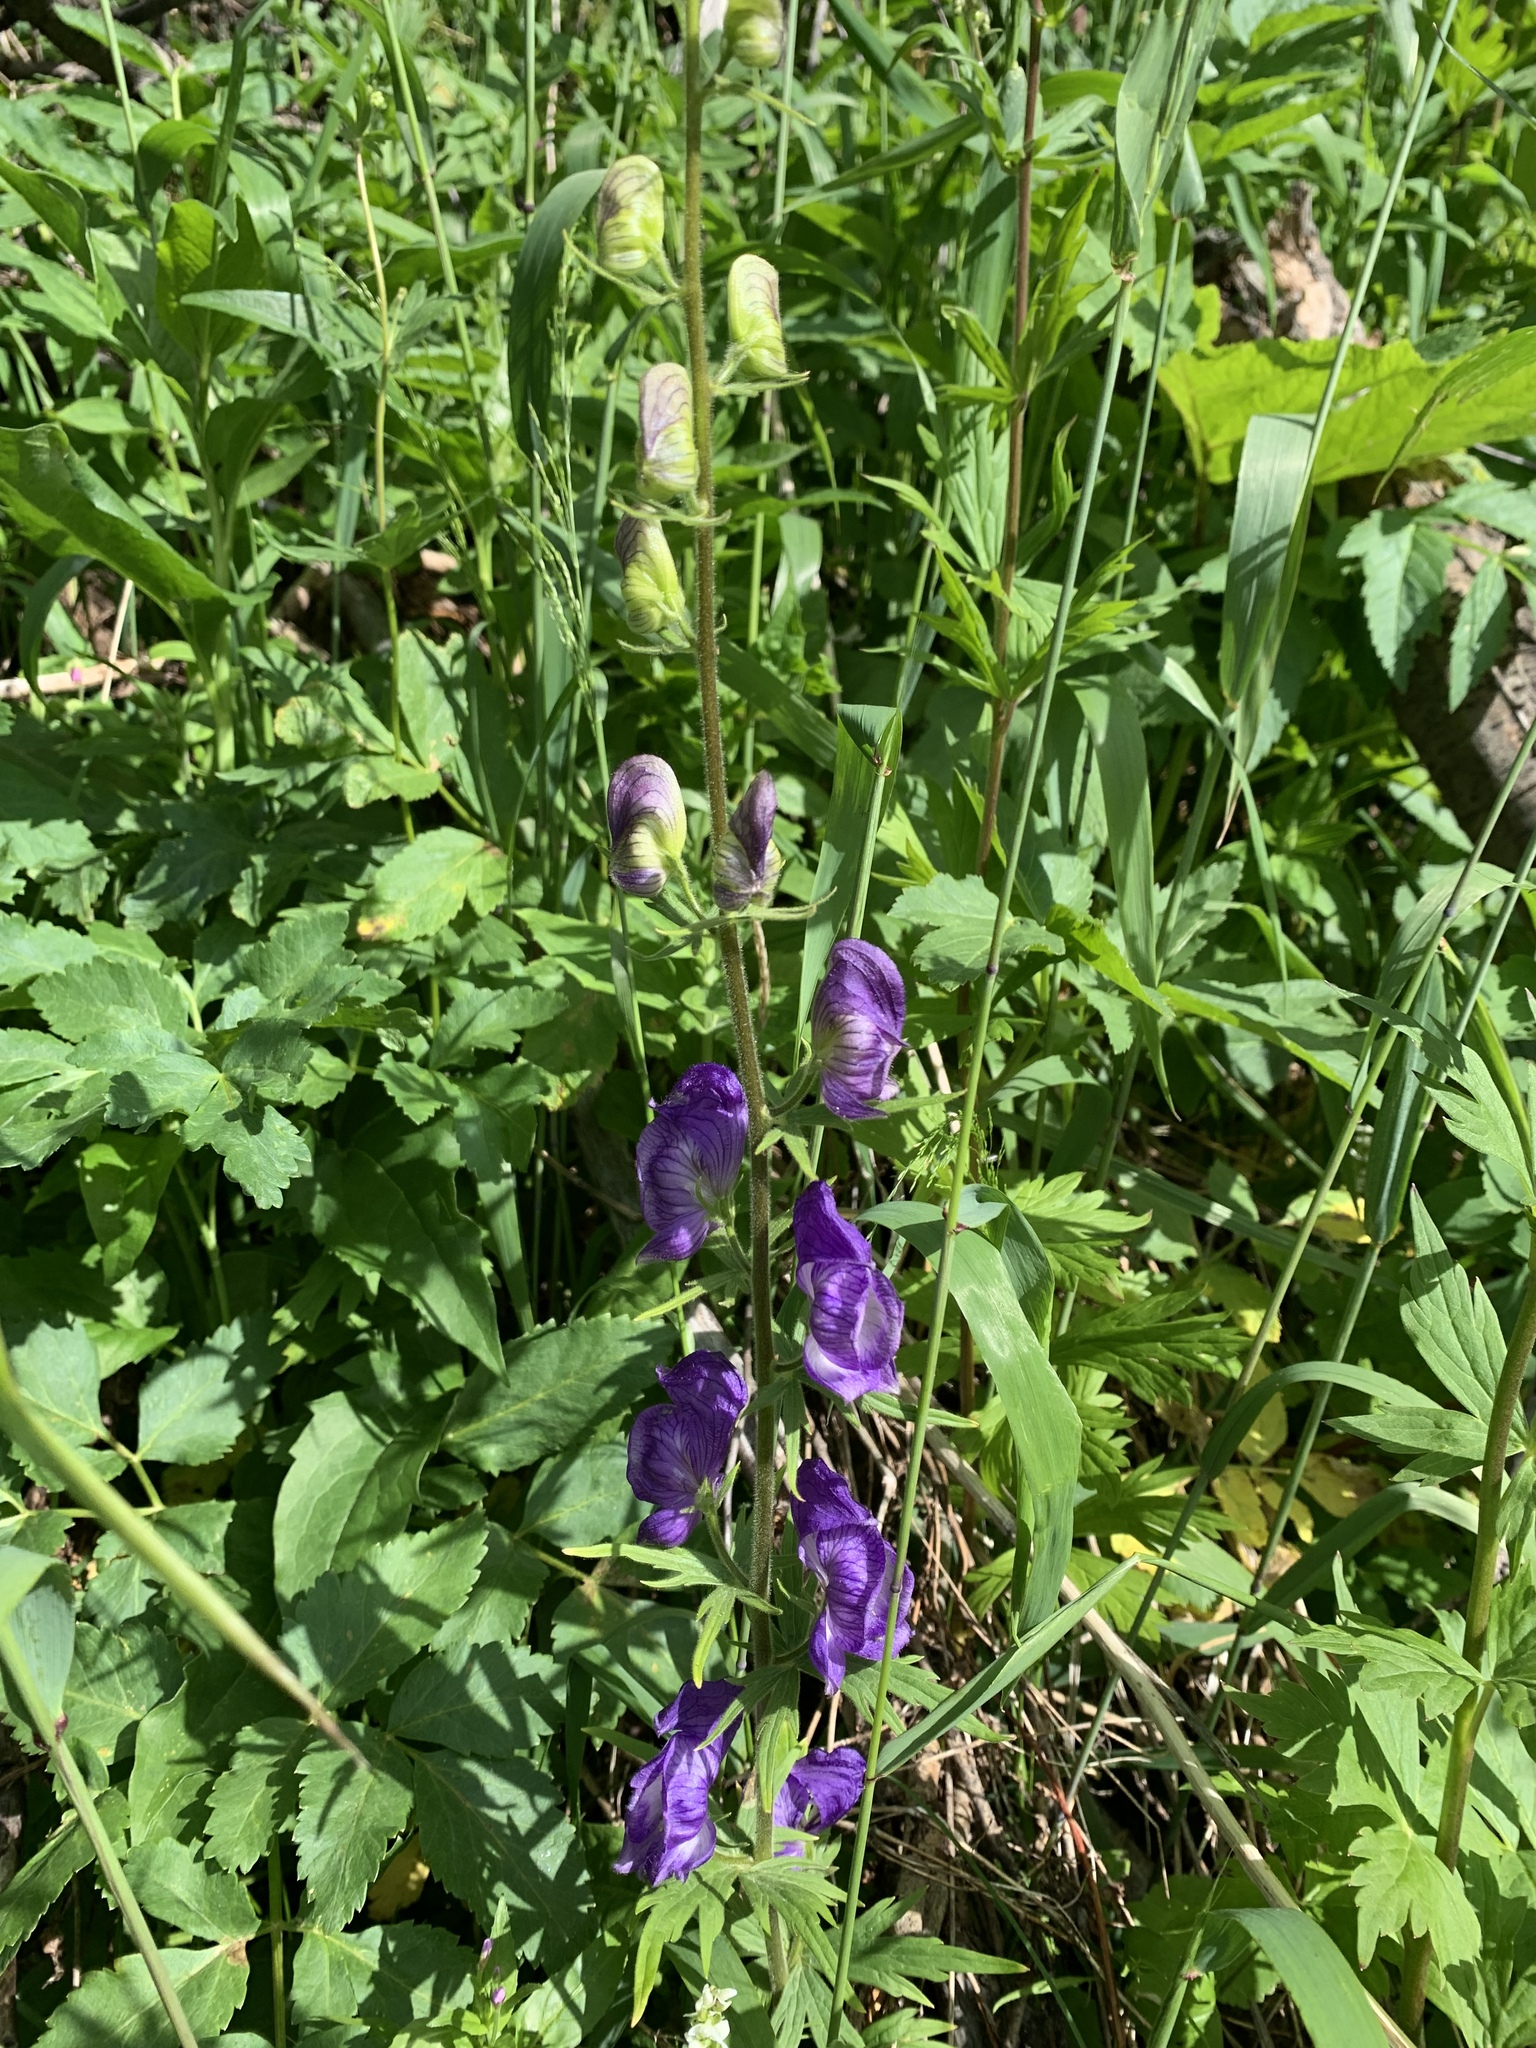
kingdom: Plantae
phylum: Tracheophyta
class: Magnoliopsida
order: Ranunculales
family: Ranunculaceae
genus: Aconitum
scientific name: Aconitum columbianum
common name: Columbia aconite
